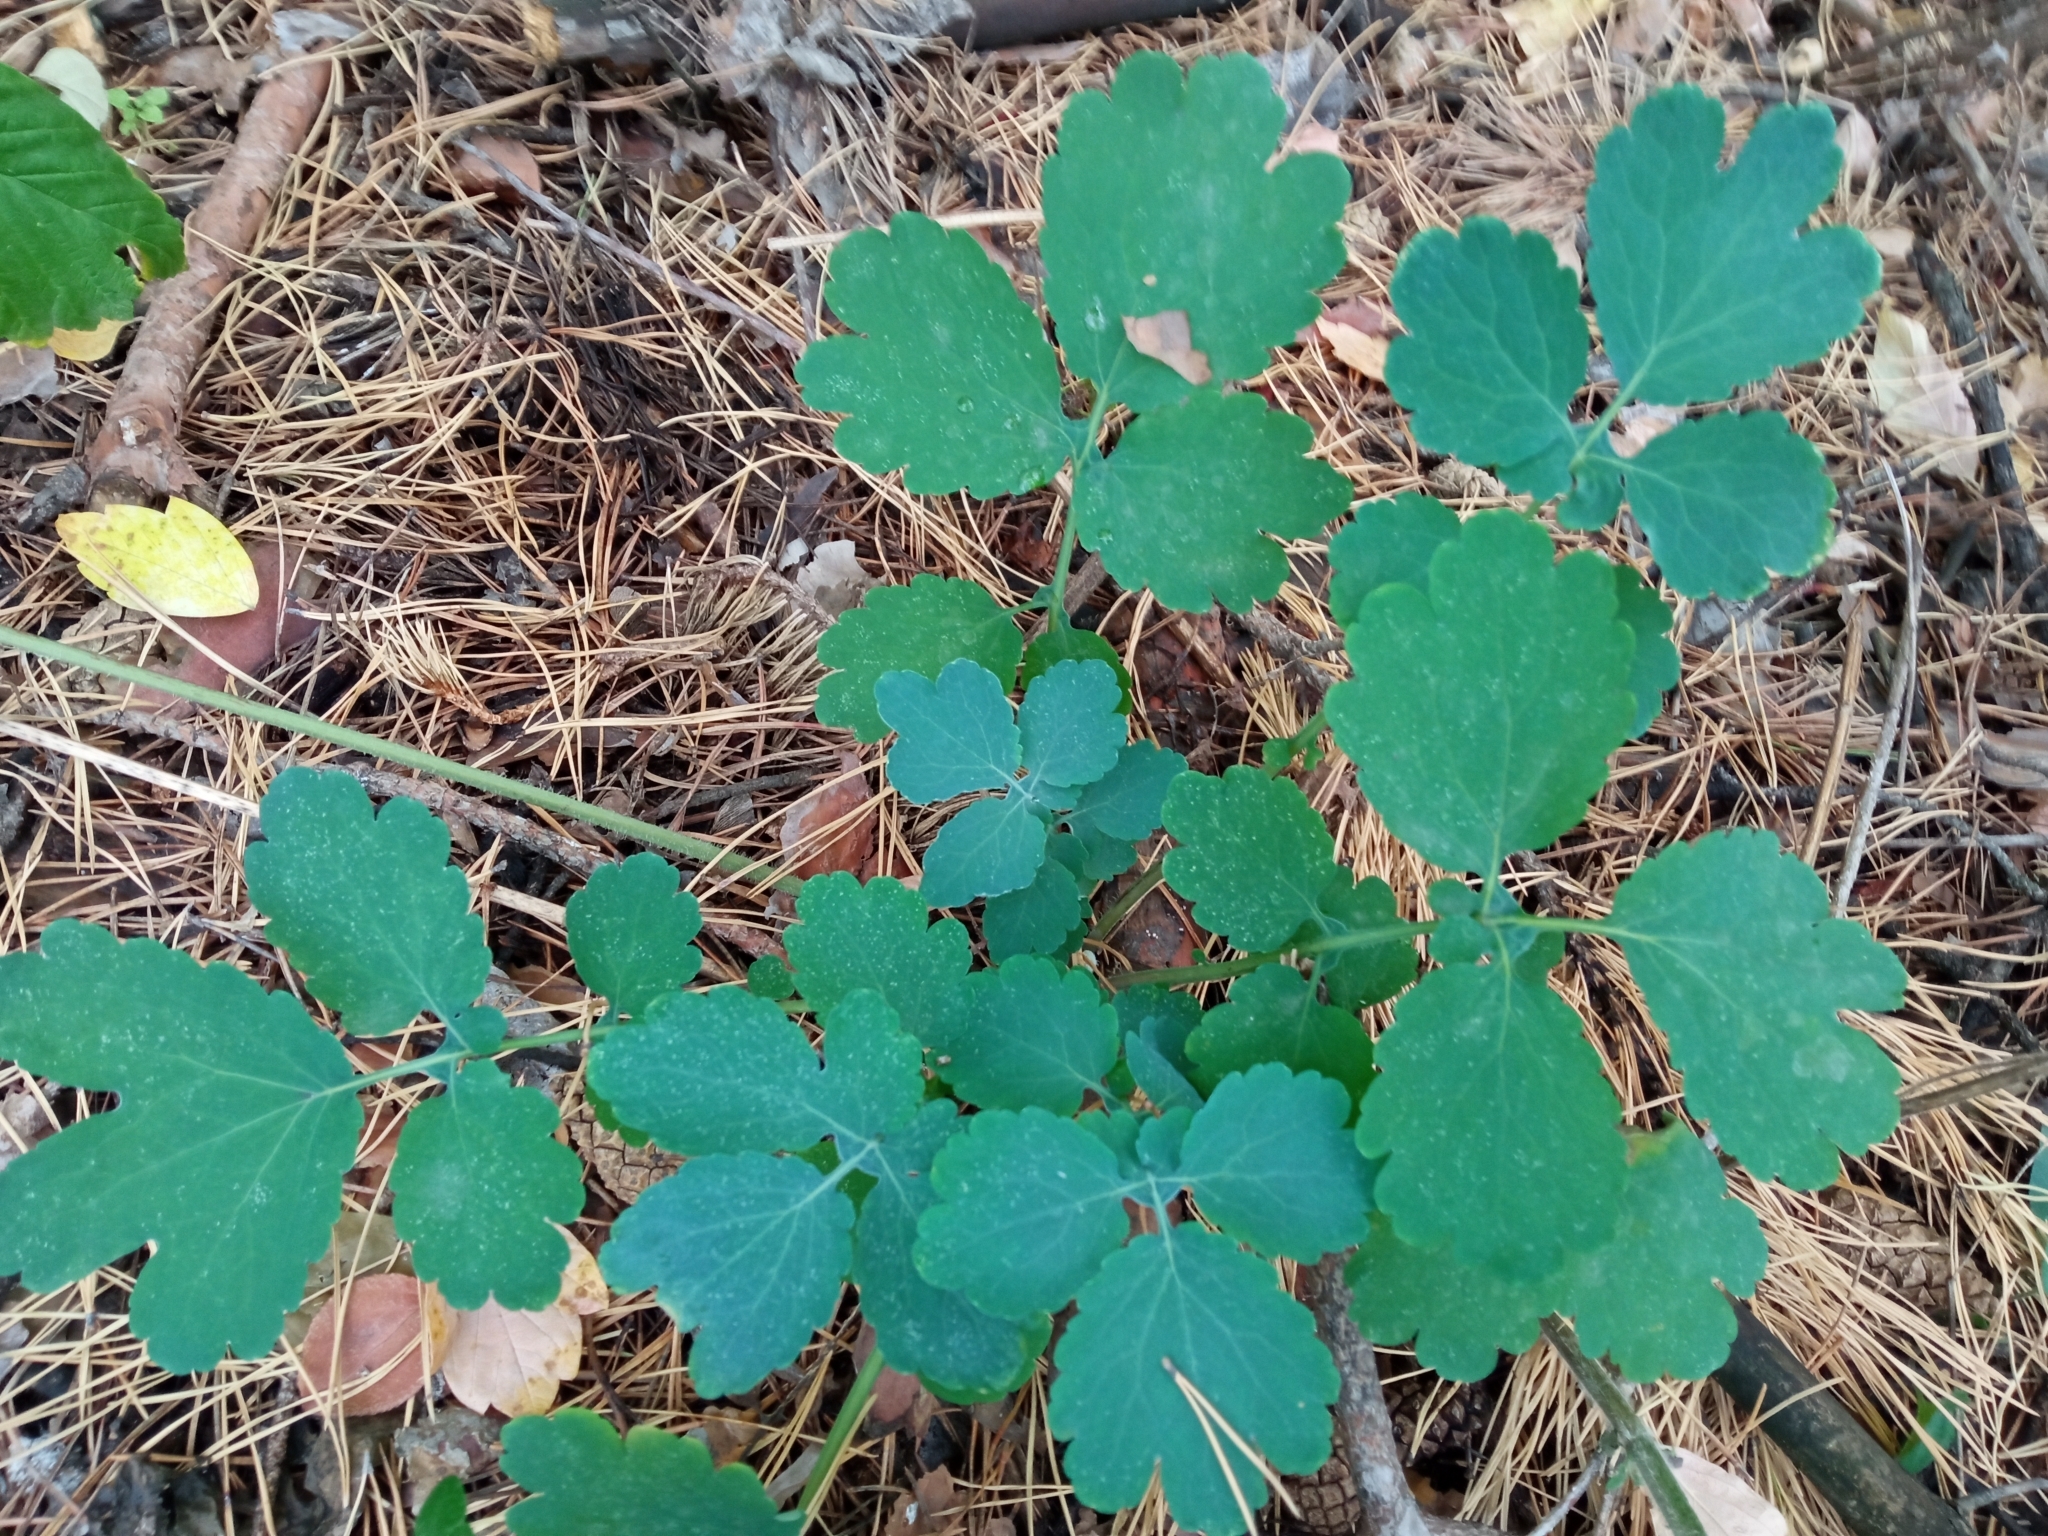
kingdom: Plantae
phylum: Tracheophyta
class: Magnoliopsida
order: Ranunculales
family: Papaveraceae
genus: Chelidonium
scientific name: Chelidonium majus
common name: Greater celandine
